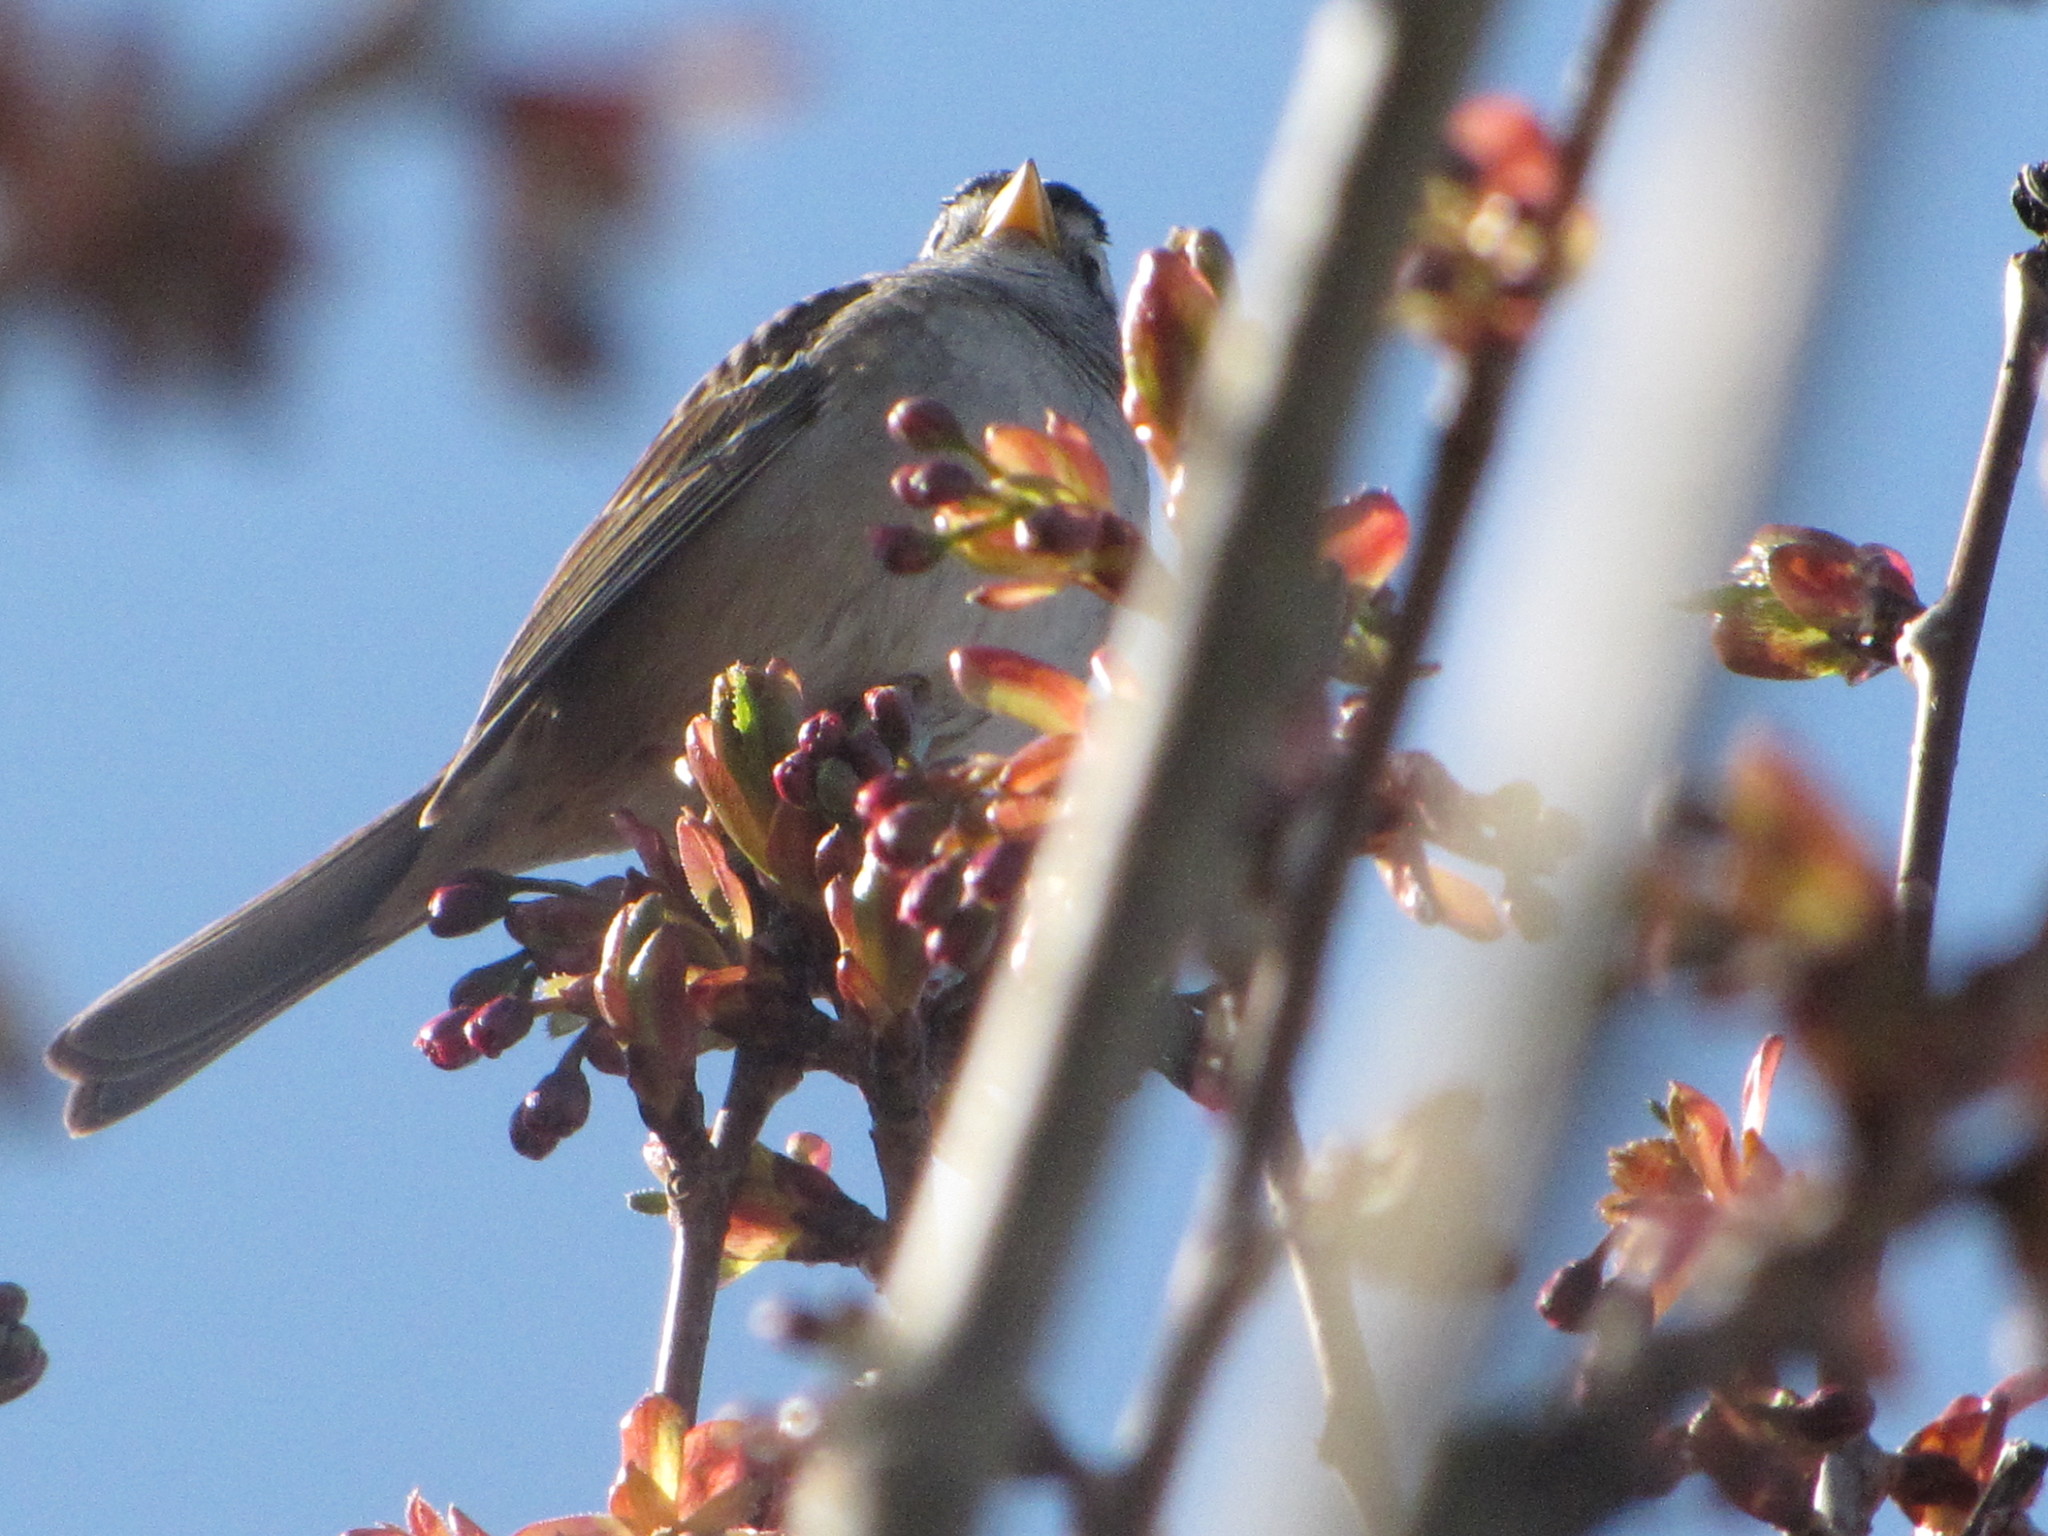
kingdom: Animalia
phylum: Chordata
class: Aves
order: Passeriformes
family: Passerellidae
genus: Zonotrichia
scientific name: Zonotrichia leucophrys
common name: White-crowned sparrow
